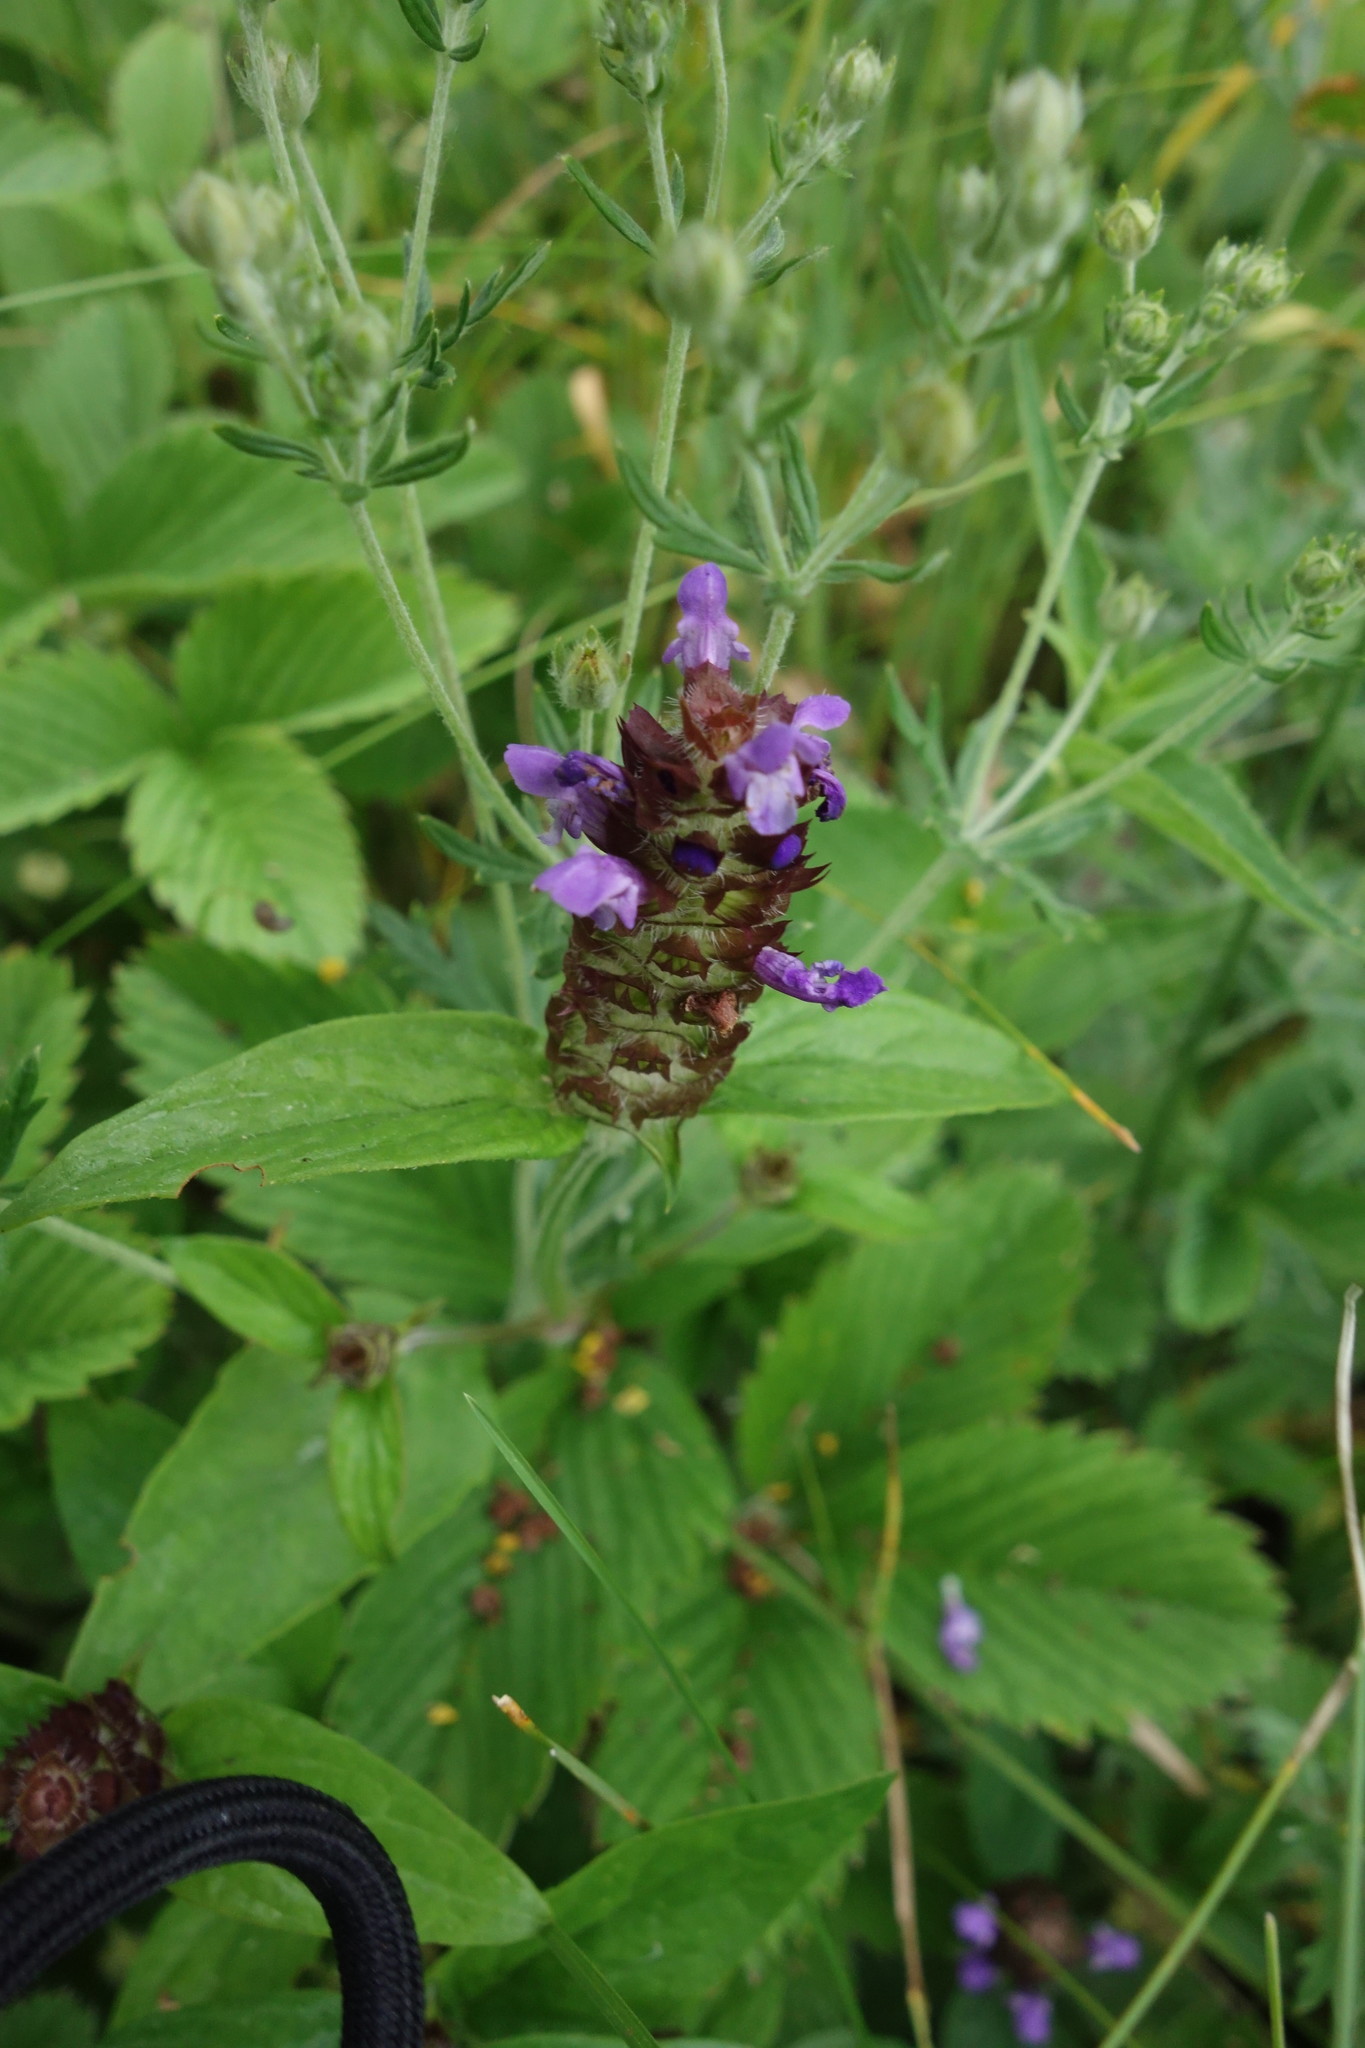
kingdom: Plantae
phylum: Tracheophyta
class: Magnoliopsida
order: Lamiales
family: Lamiaceae
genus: Prunella
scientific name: Prunella vulgaris
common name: Heal-all
